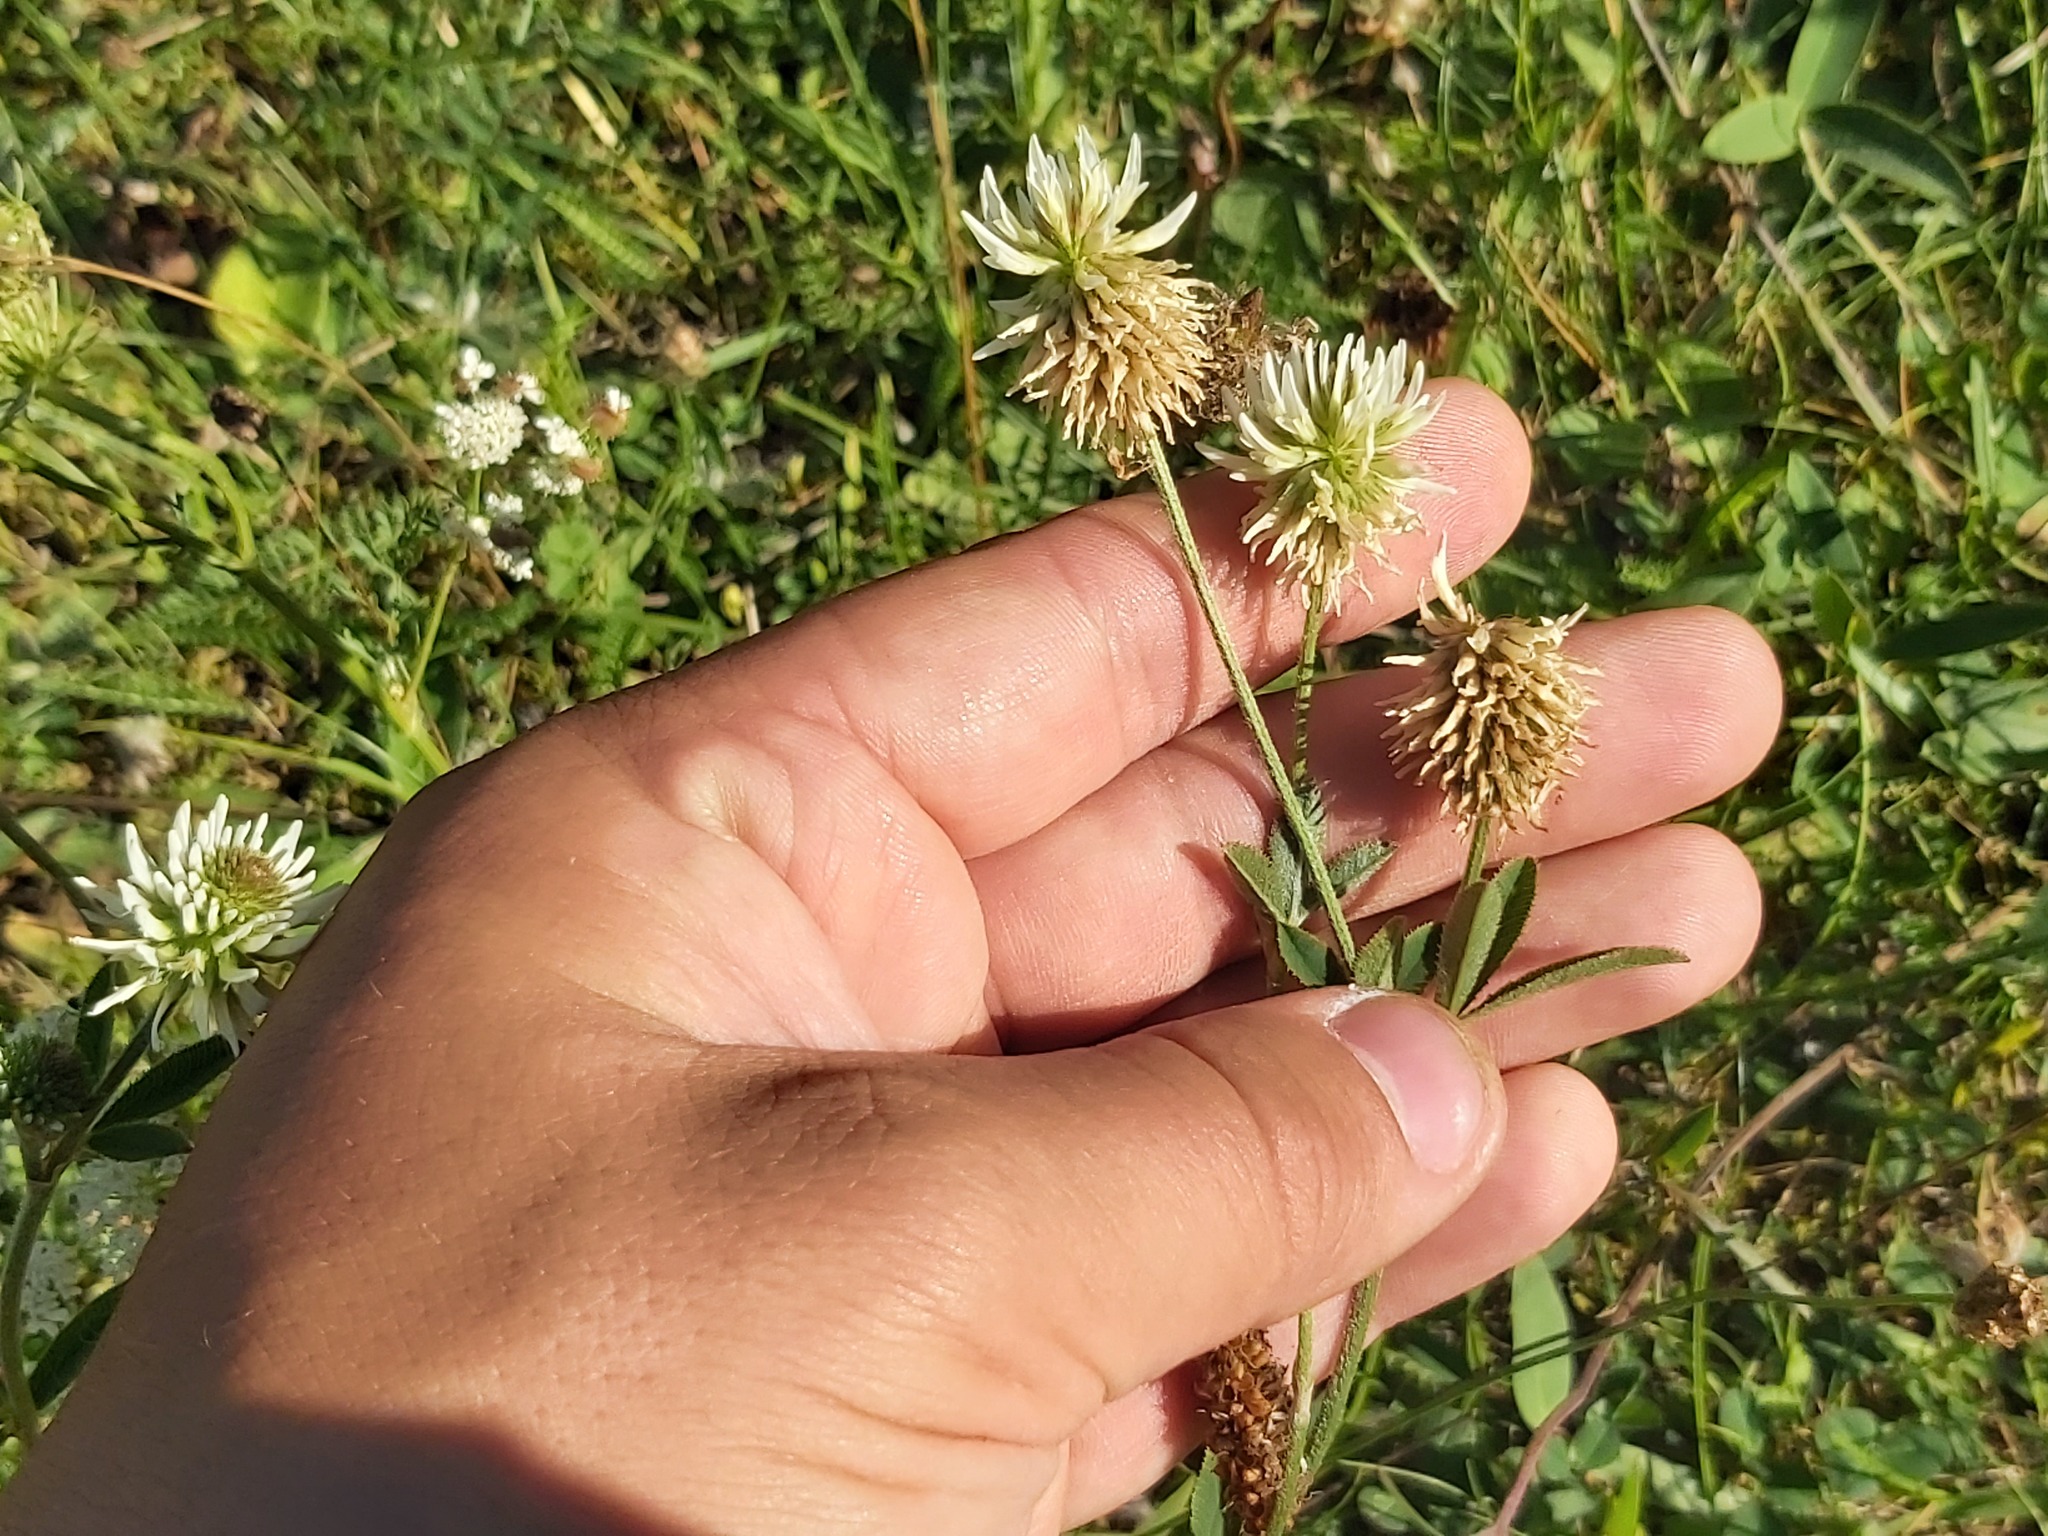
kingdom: Plantae
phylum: Tracheophyta
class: Magnoliopsida
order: Fabales
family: Fabaceae
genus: Trifolium
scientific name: Trifolium montanum
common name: Mountain clover
